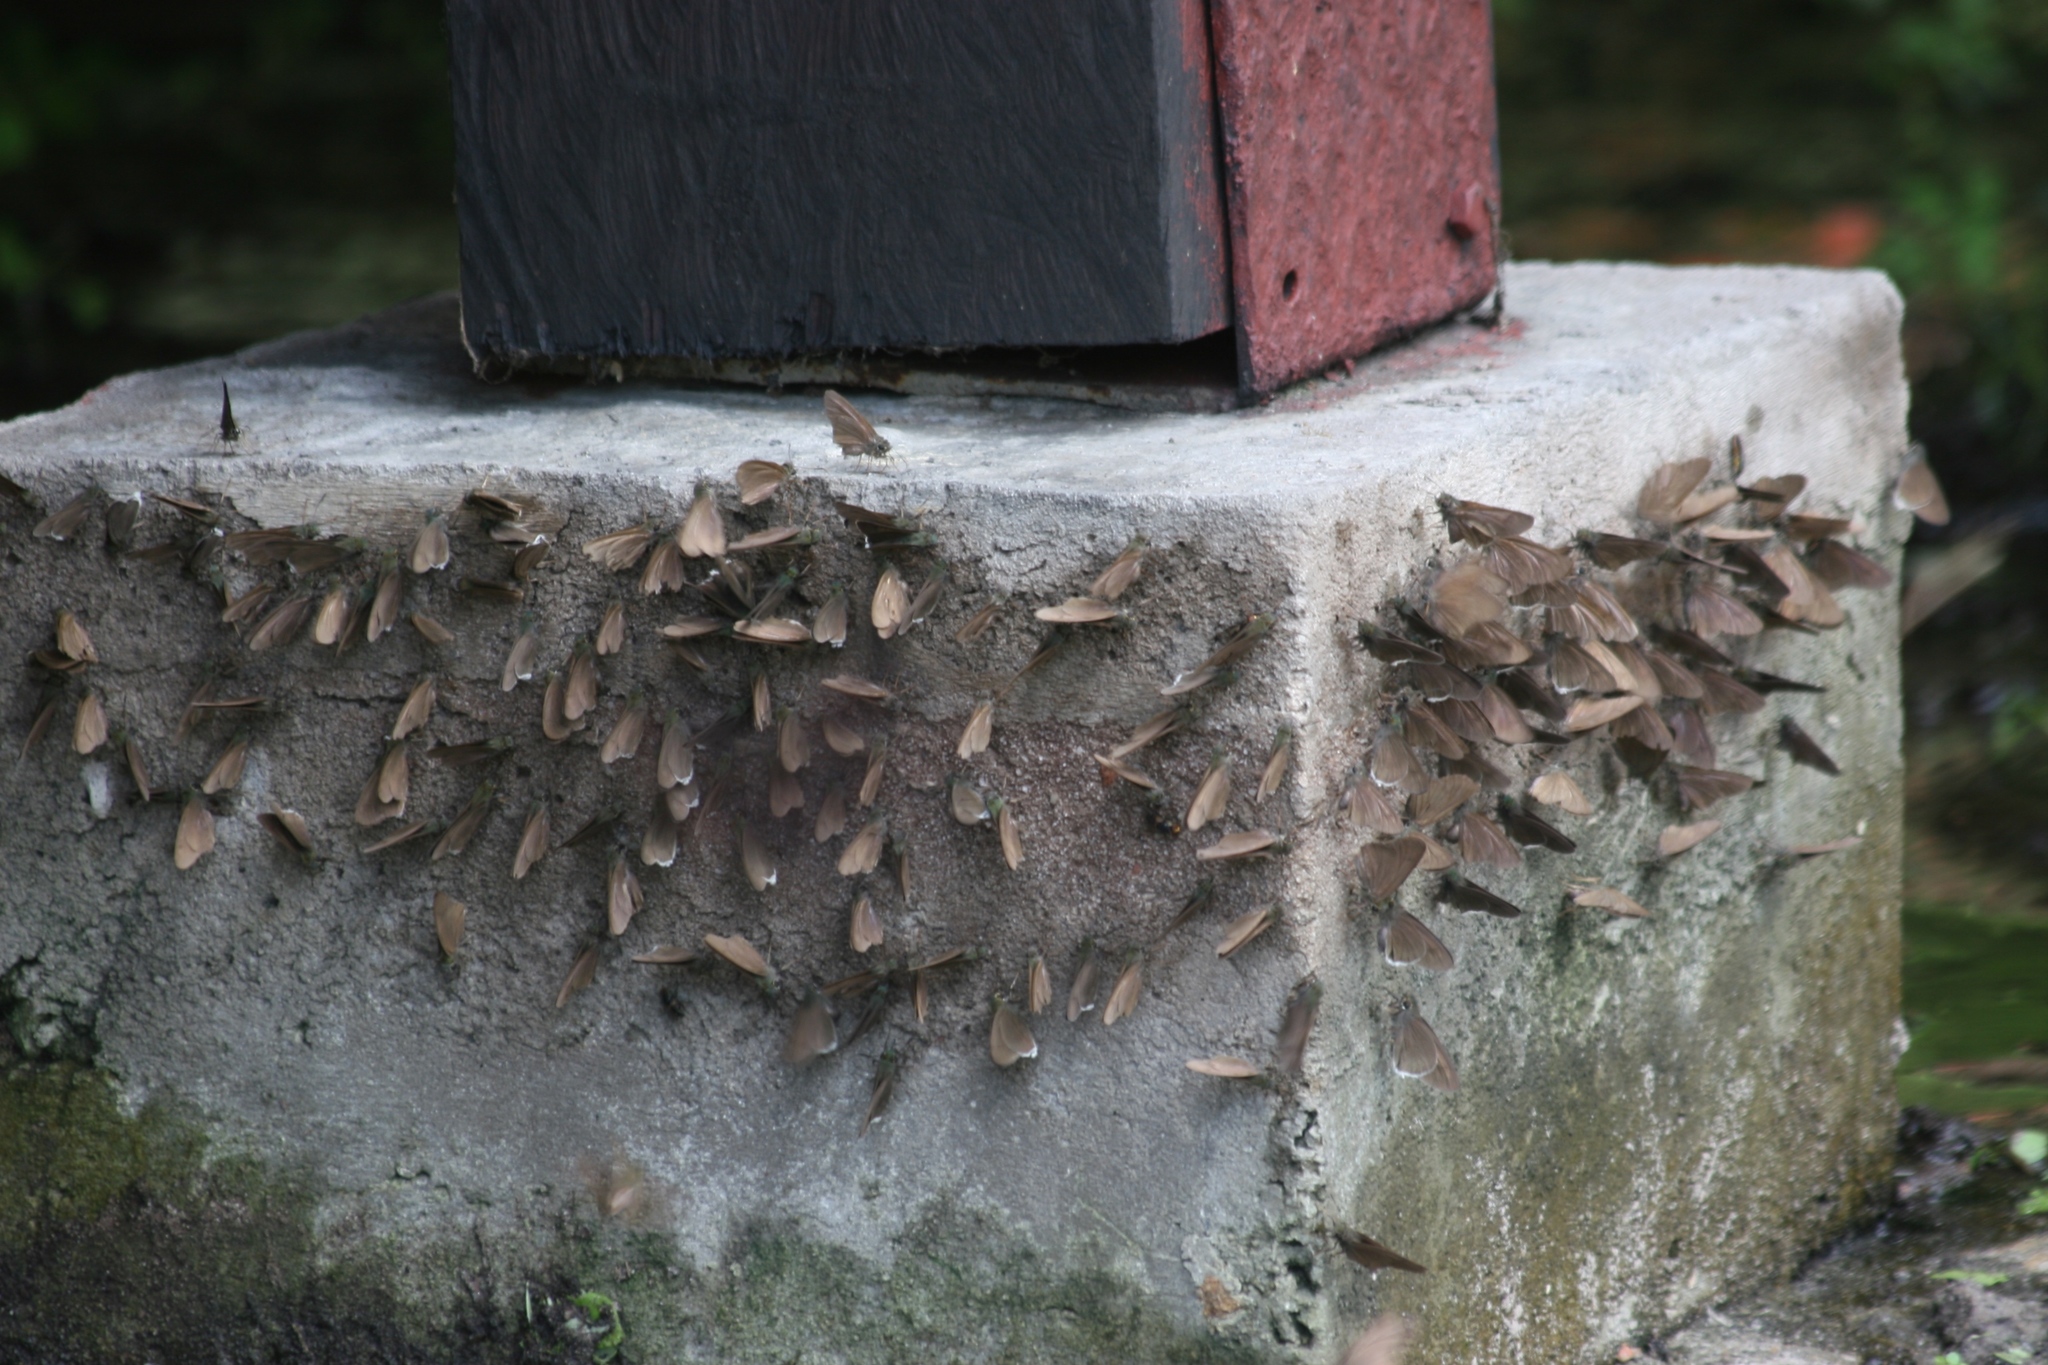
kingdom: Animalia
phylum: Arthropoda
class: Insecta
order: Lepidoptera
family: Hesperiidae
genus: Coeliades
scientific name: Coeliades libeon
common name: Spotless policeman
